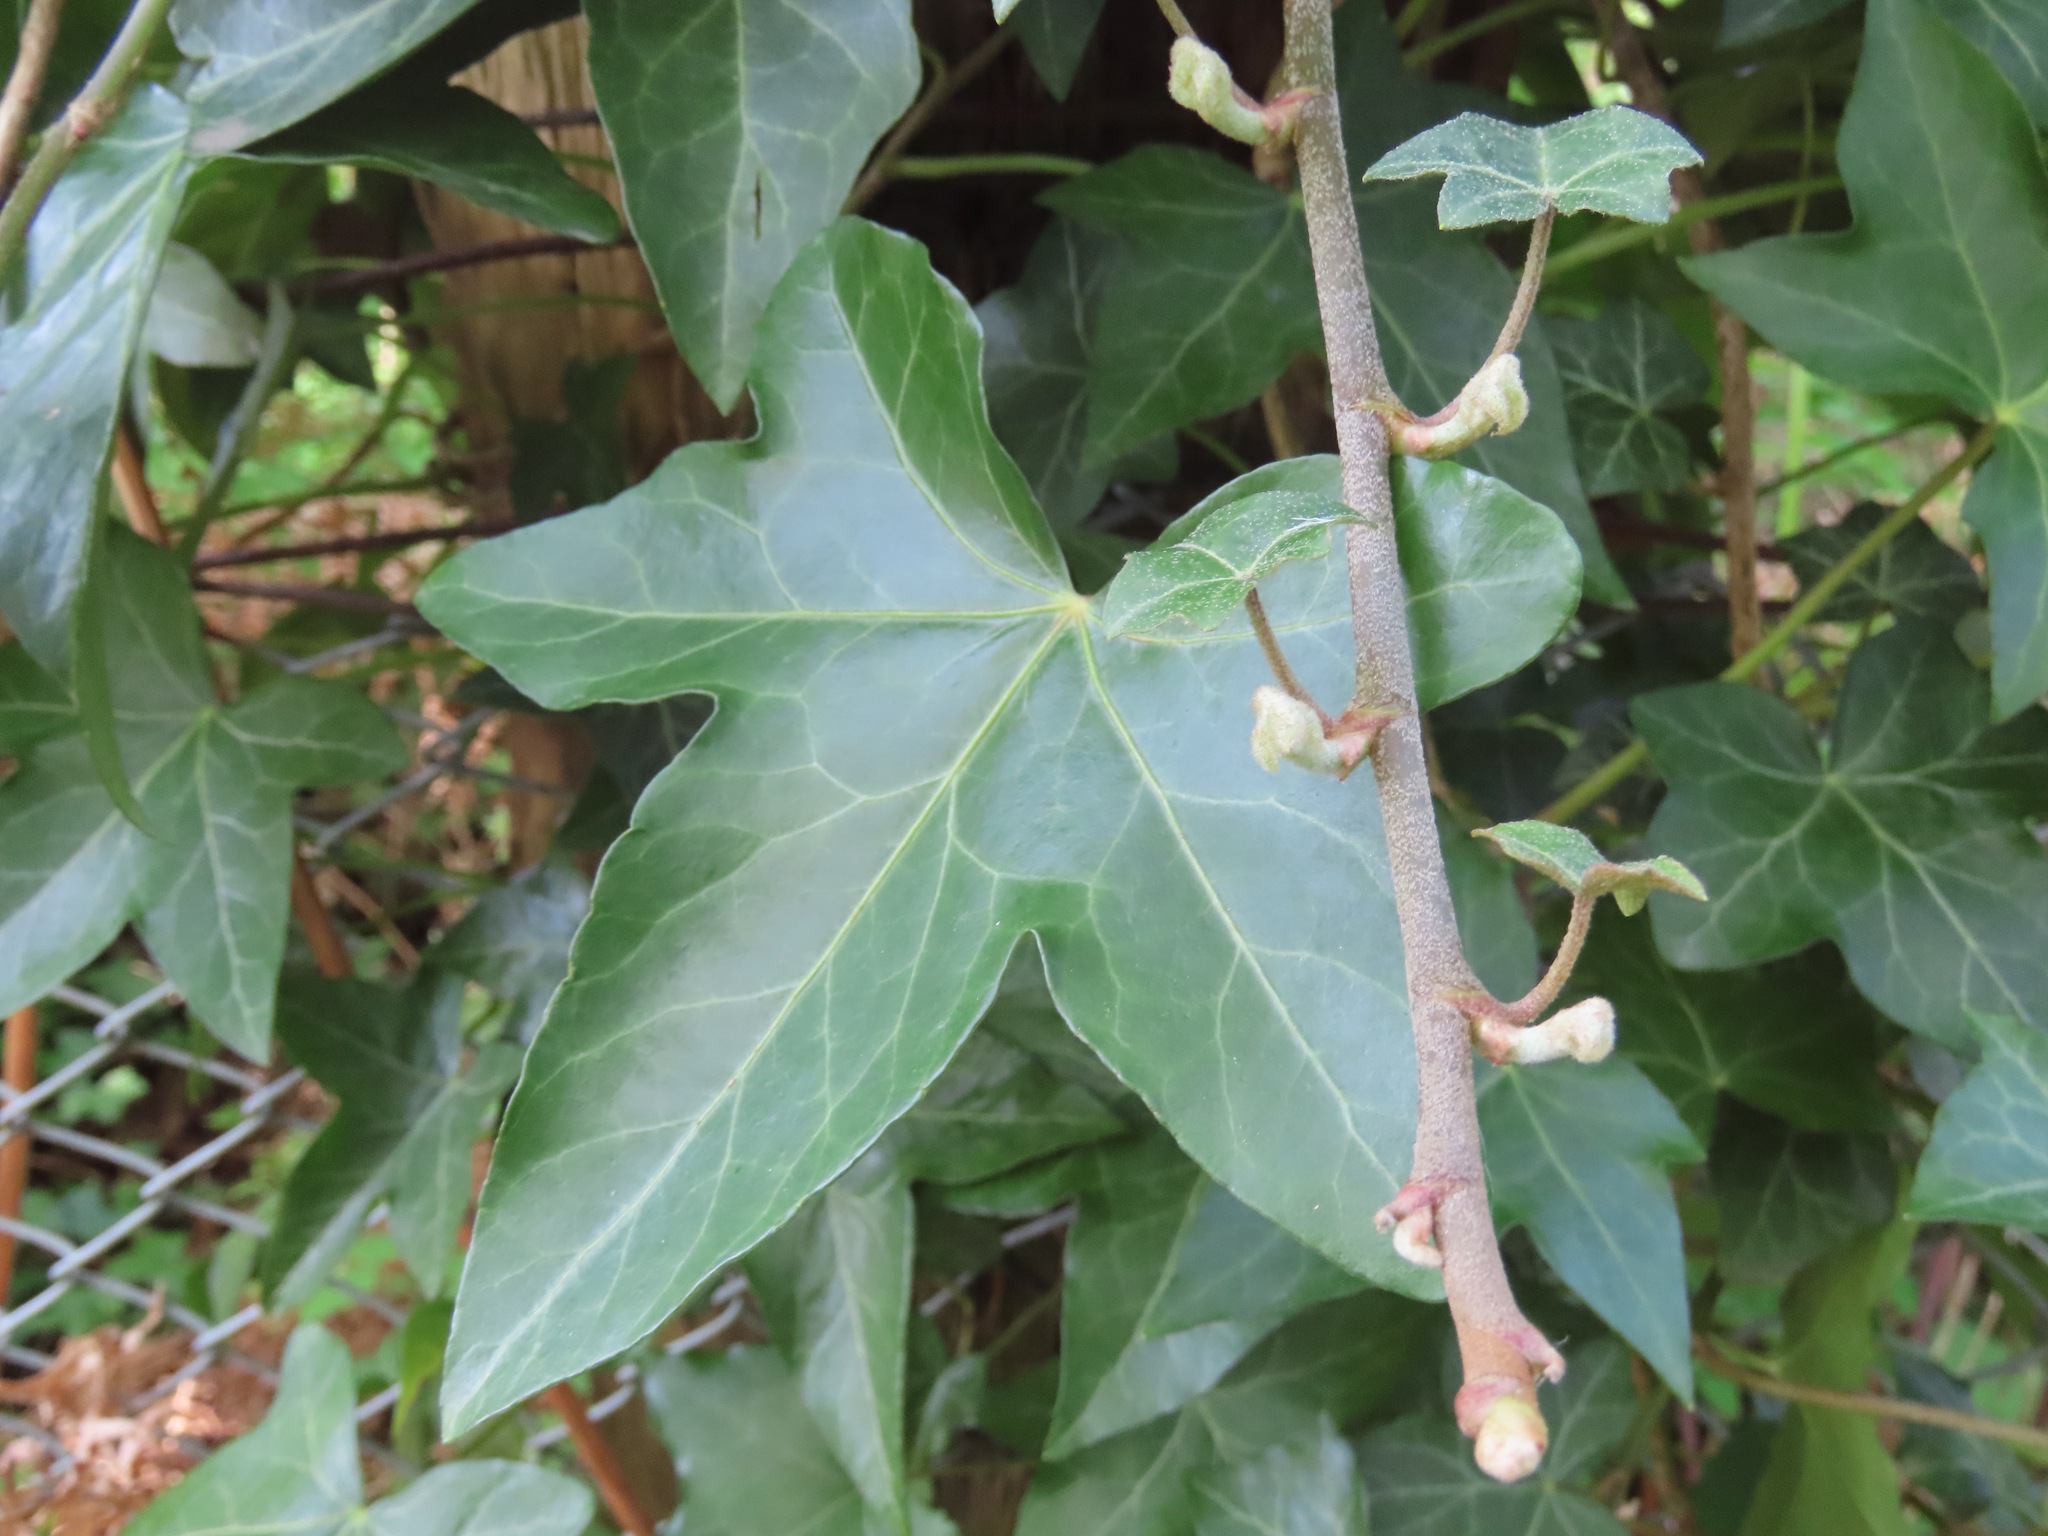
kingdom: Plantae
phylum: Tracheophyta
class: Magnoliopsida
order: Apiales
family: Araliaceae
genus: Hedera
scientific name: Hedera helix
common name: Ivy
